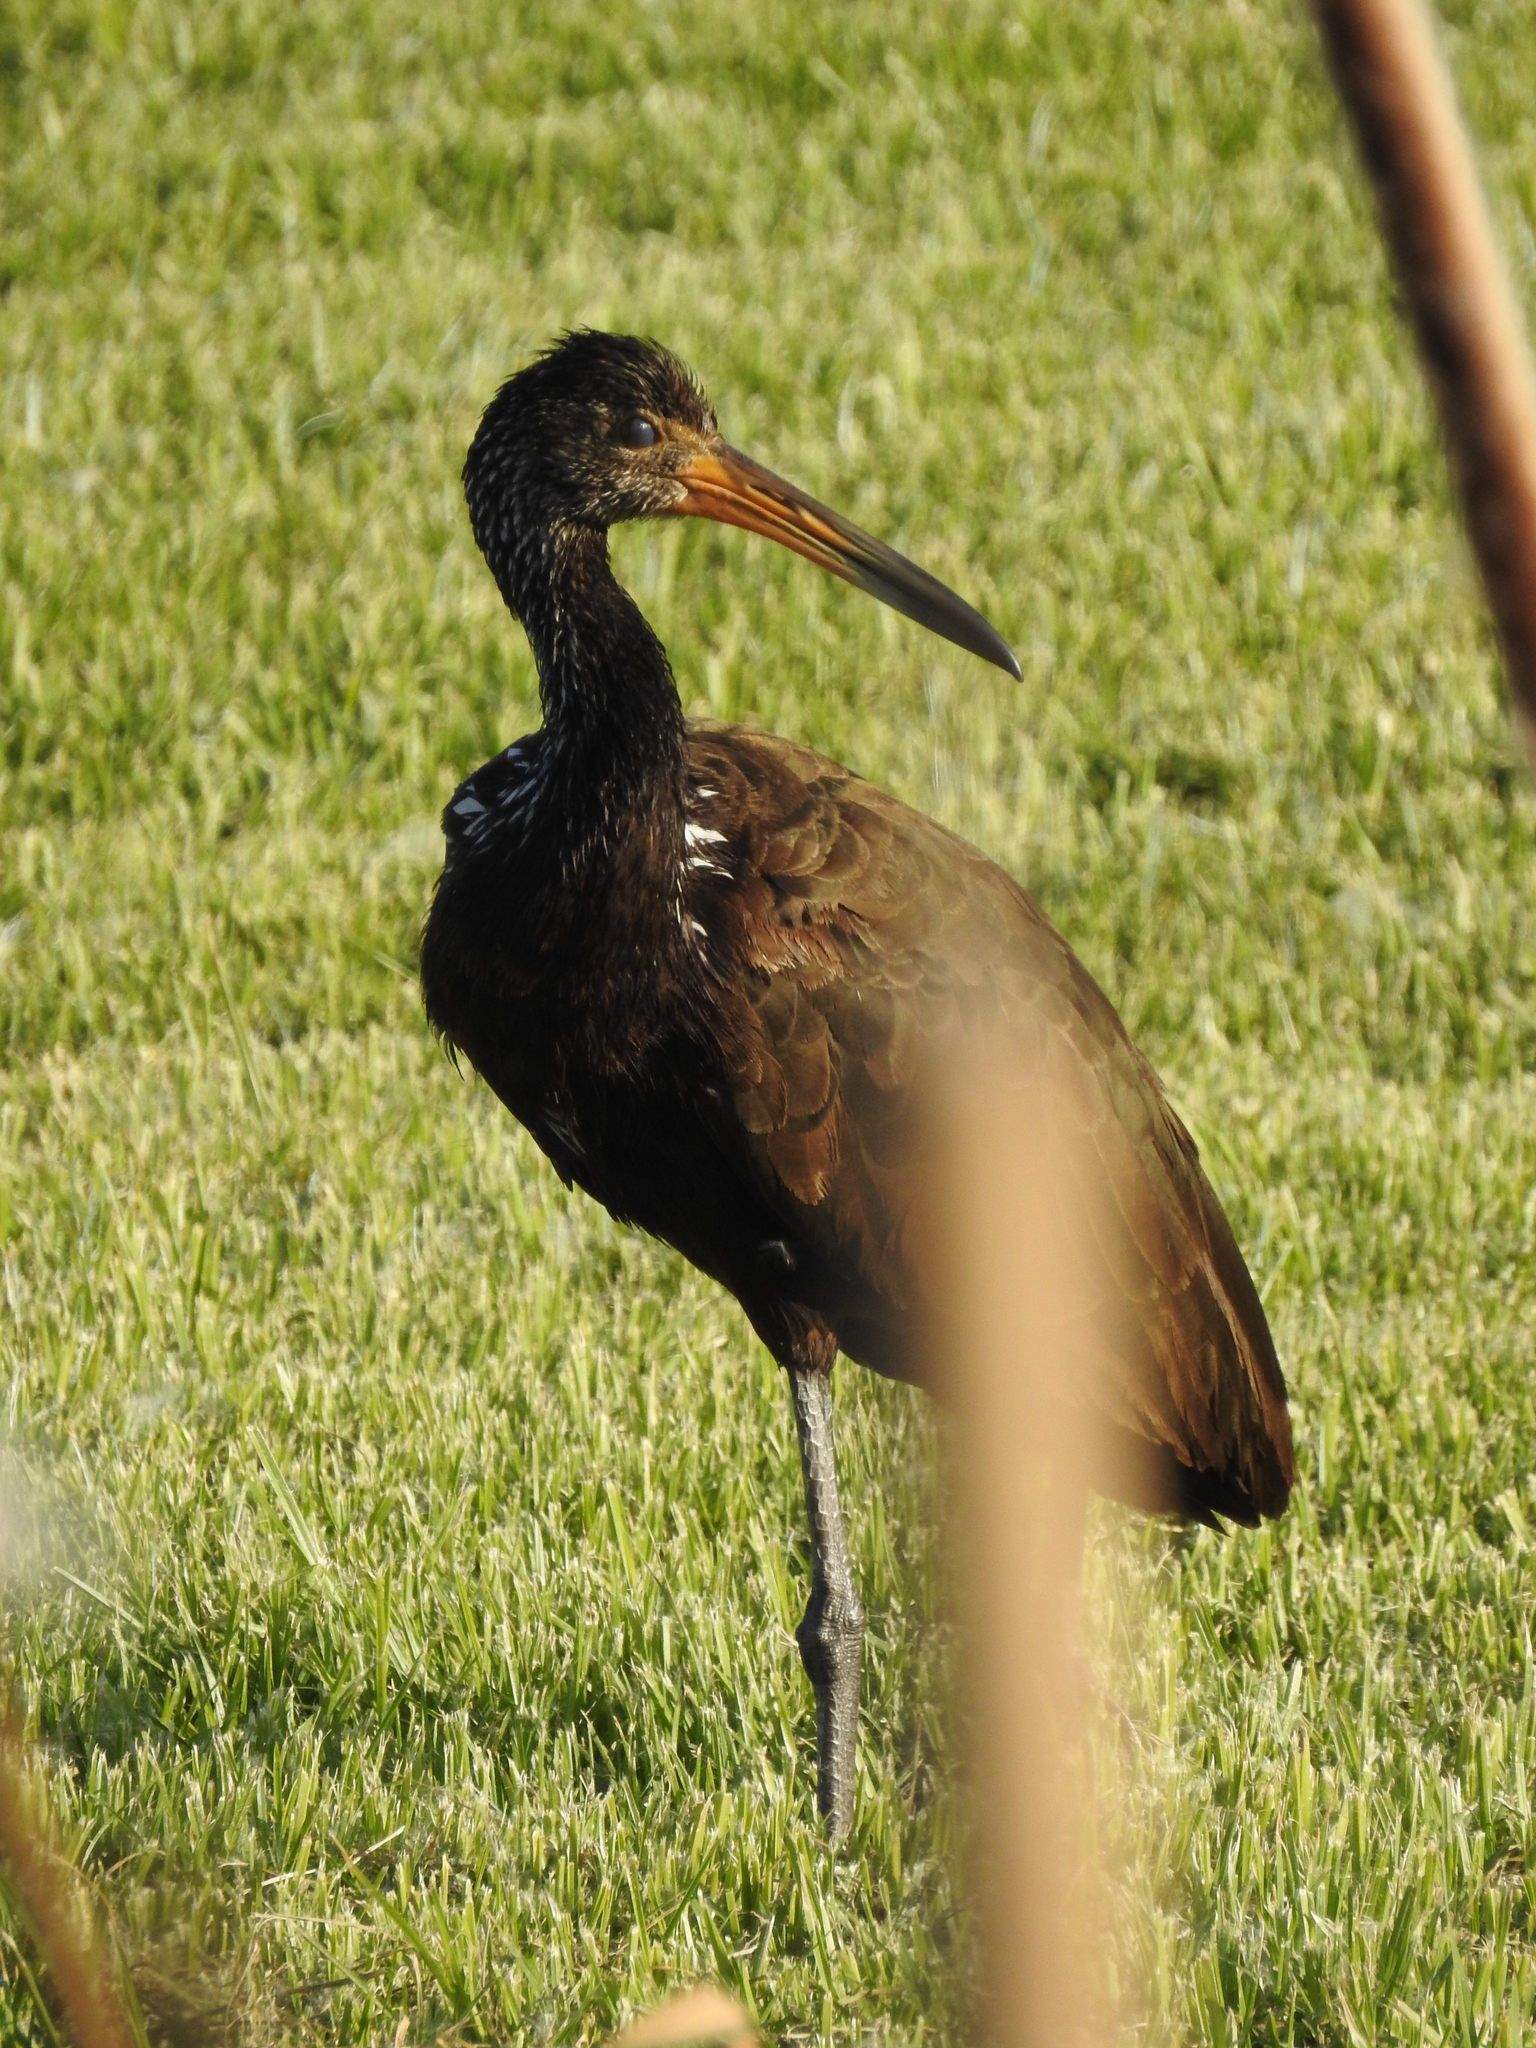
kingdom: Animalia
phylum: Chordata
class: Aves
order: Gruiformes
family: Aramidae
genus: Aramus
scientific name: Aramus guarauna
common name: Limpkin
